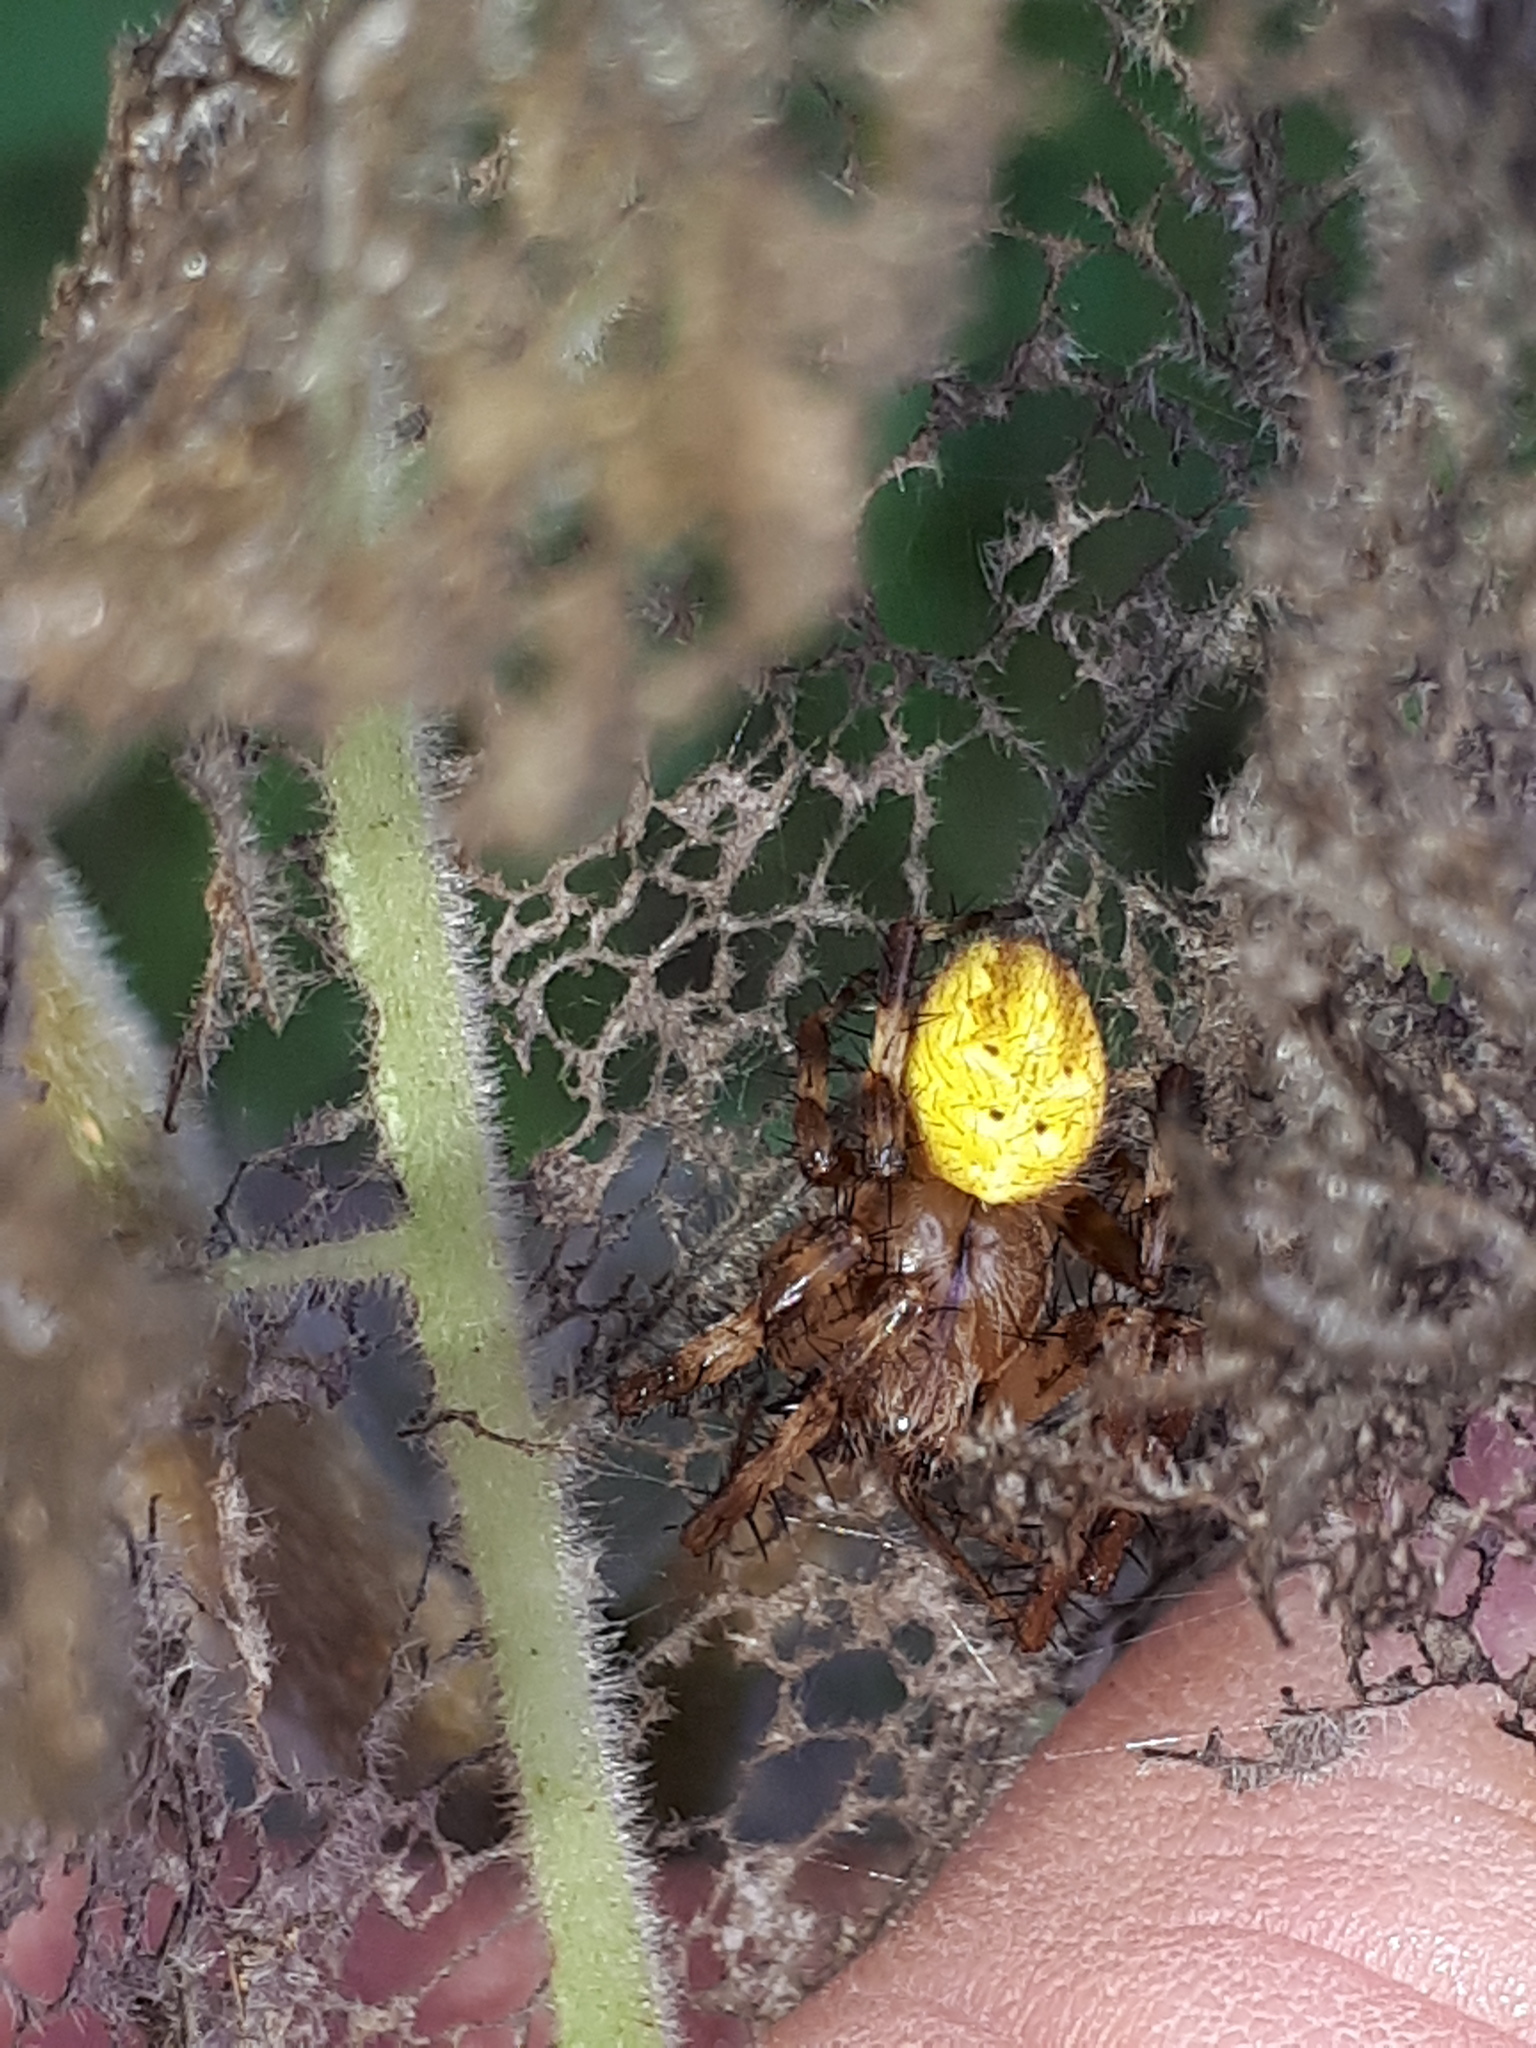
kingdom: Animalia
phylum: Arthropoda
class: Arachnida
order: Araneae
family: Araneidae
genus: Araneus
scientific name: Araneus quadratus
